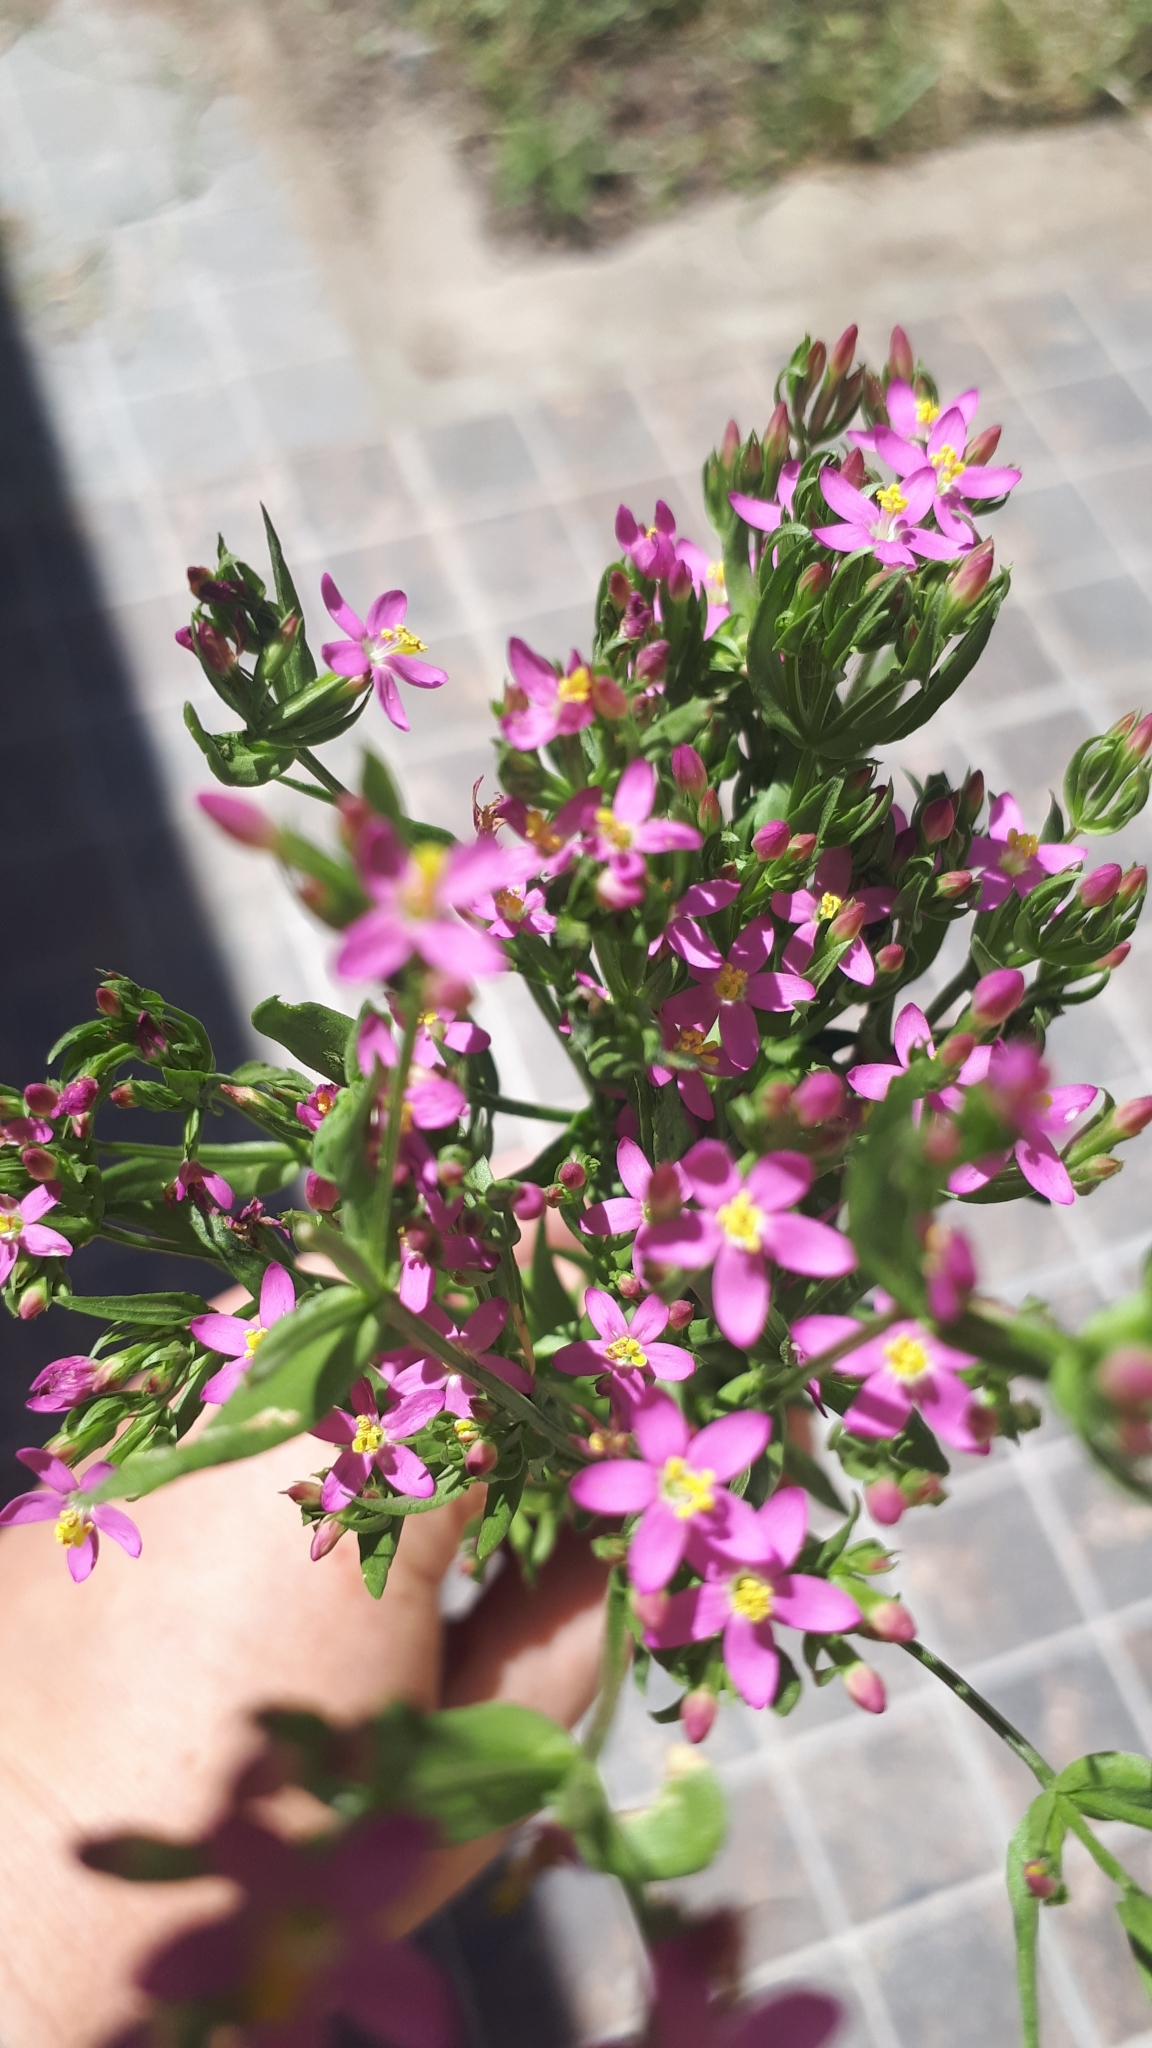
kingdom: Plantae
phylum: Tracheophyta
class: Magnoliopsida
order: Gentianales
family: Gentianaceae
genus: Centaurium
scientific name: Centaurium pulchellum
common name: Lesser centaury
